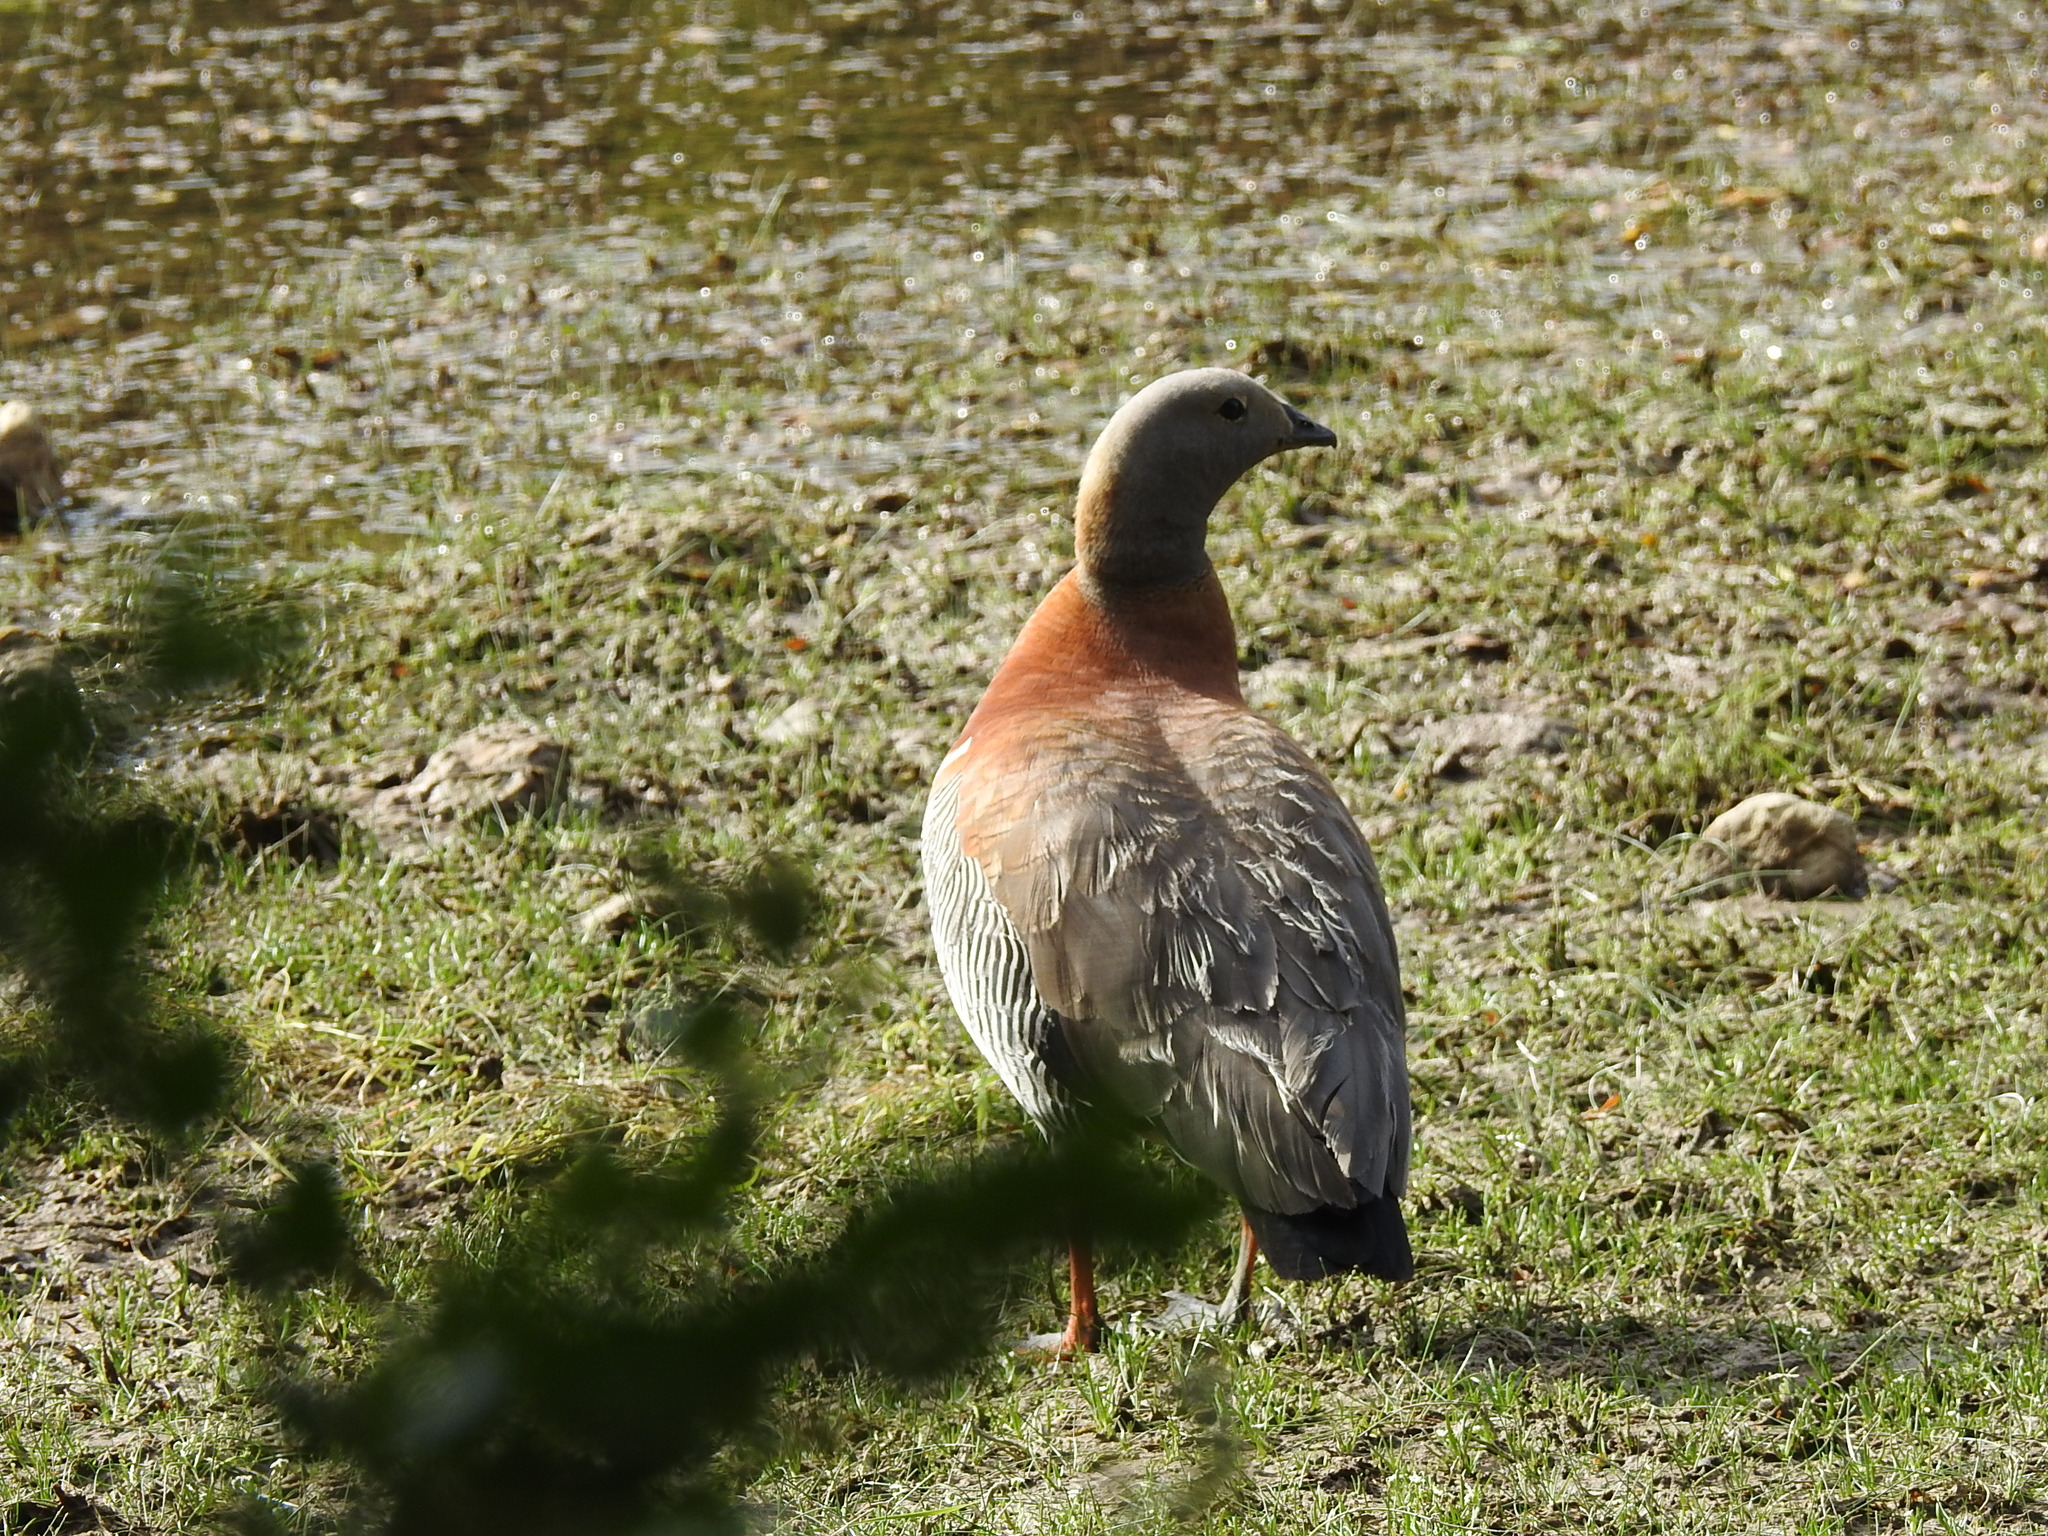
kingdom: Animalia
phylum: Chordata
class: Aves
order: Anseriformes
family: Anatidae
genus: Chloephaga
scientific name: Chloephaga poliocephala
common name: Ashy-headed goose
